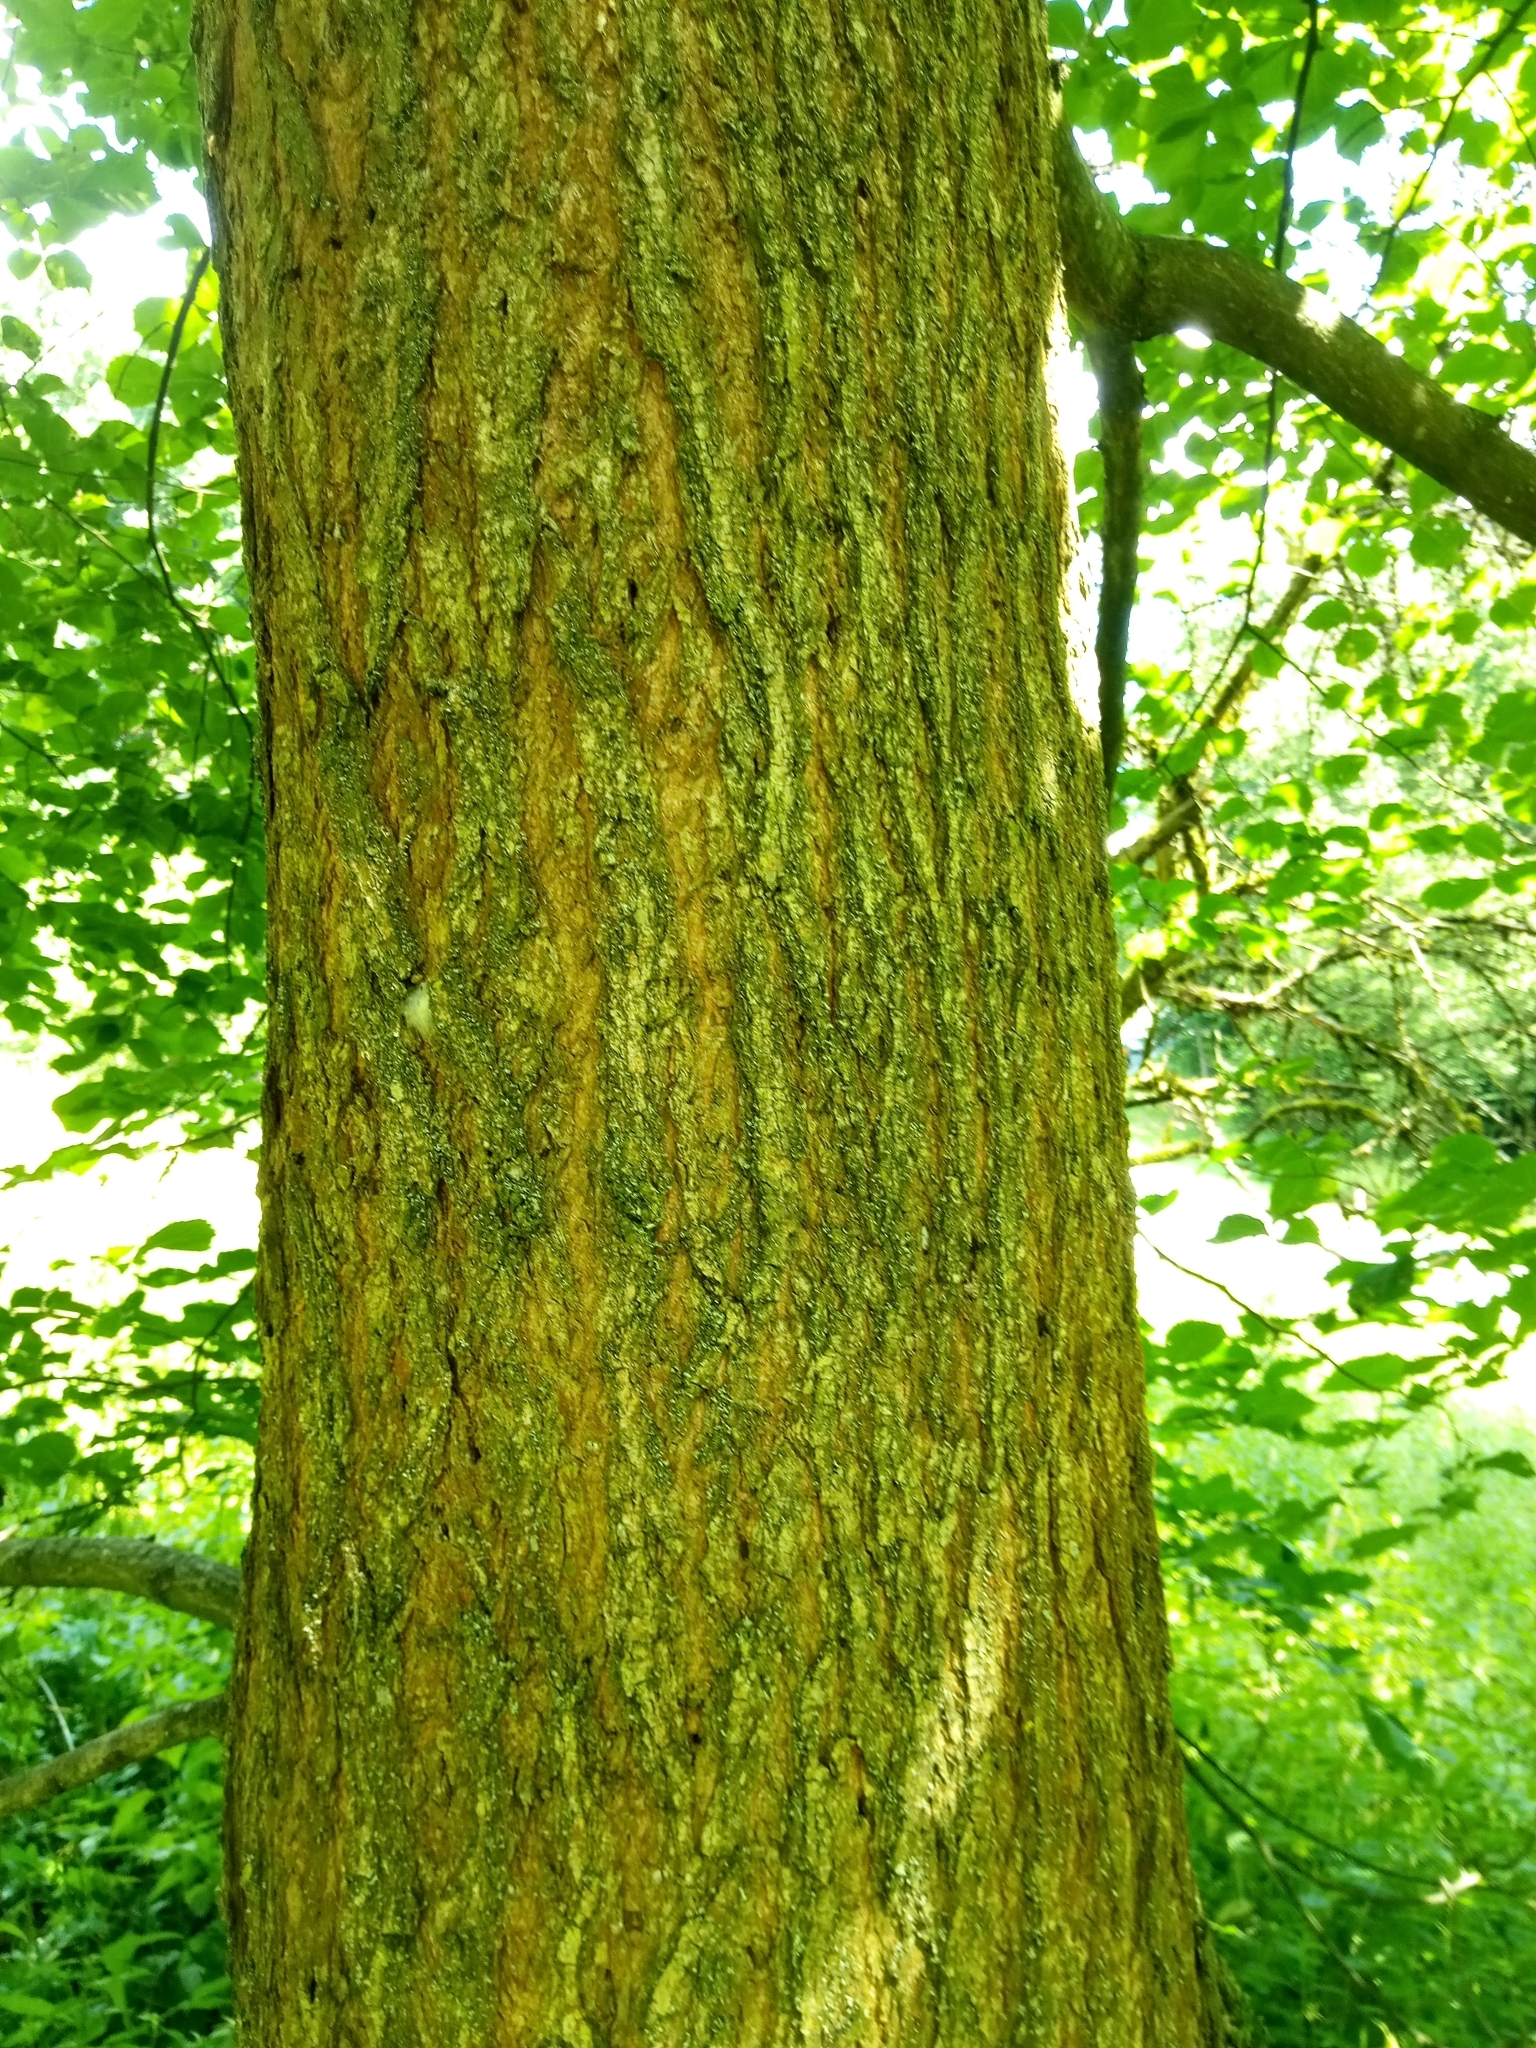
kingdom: Plantae
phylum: Tracheophyta
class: Magnoliopsida
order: Rosales
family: Ulmaceae
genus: Ulmus
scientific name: Ulmus glabra
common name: Wych elm
